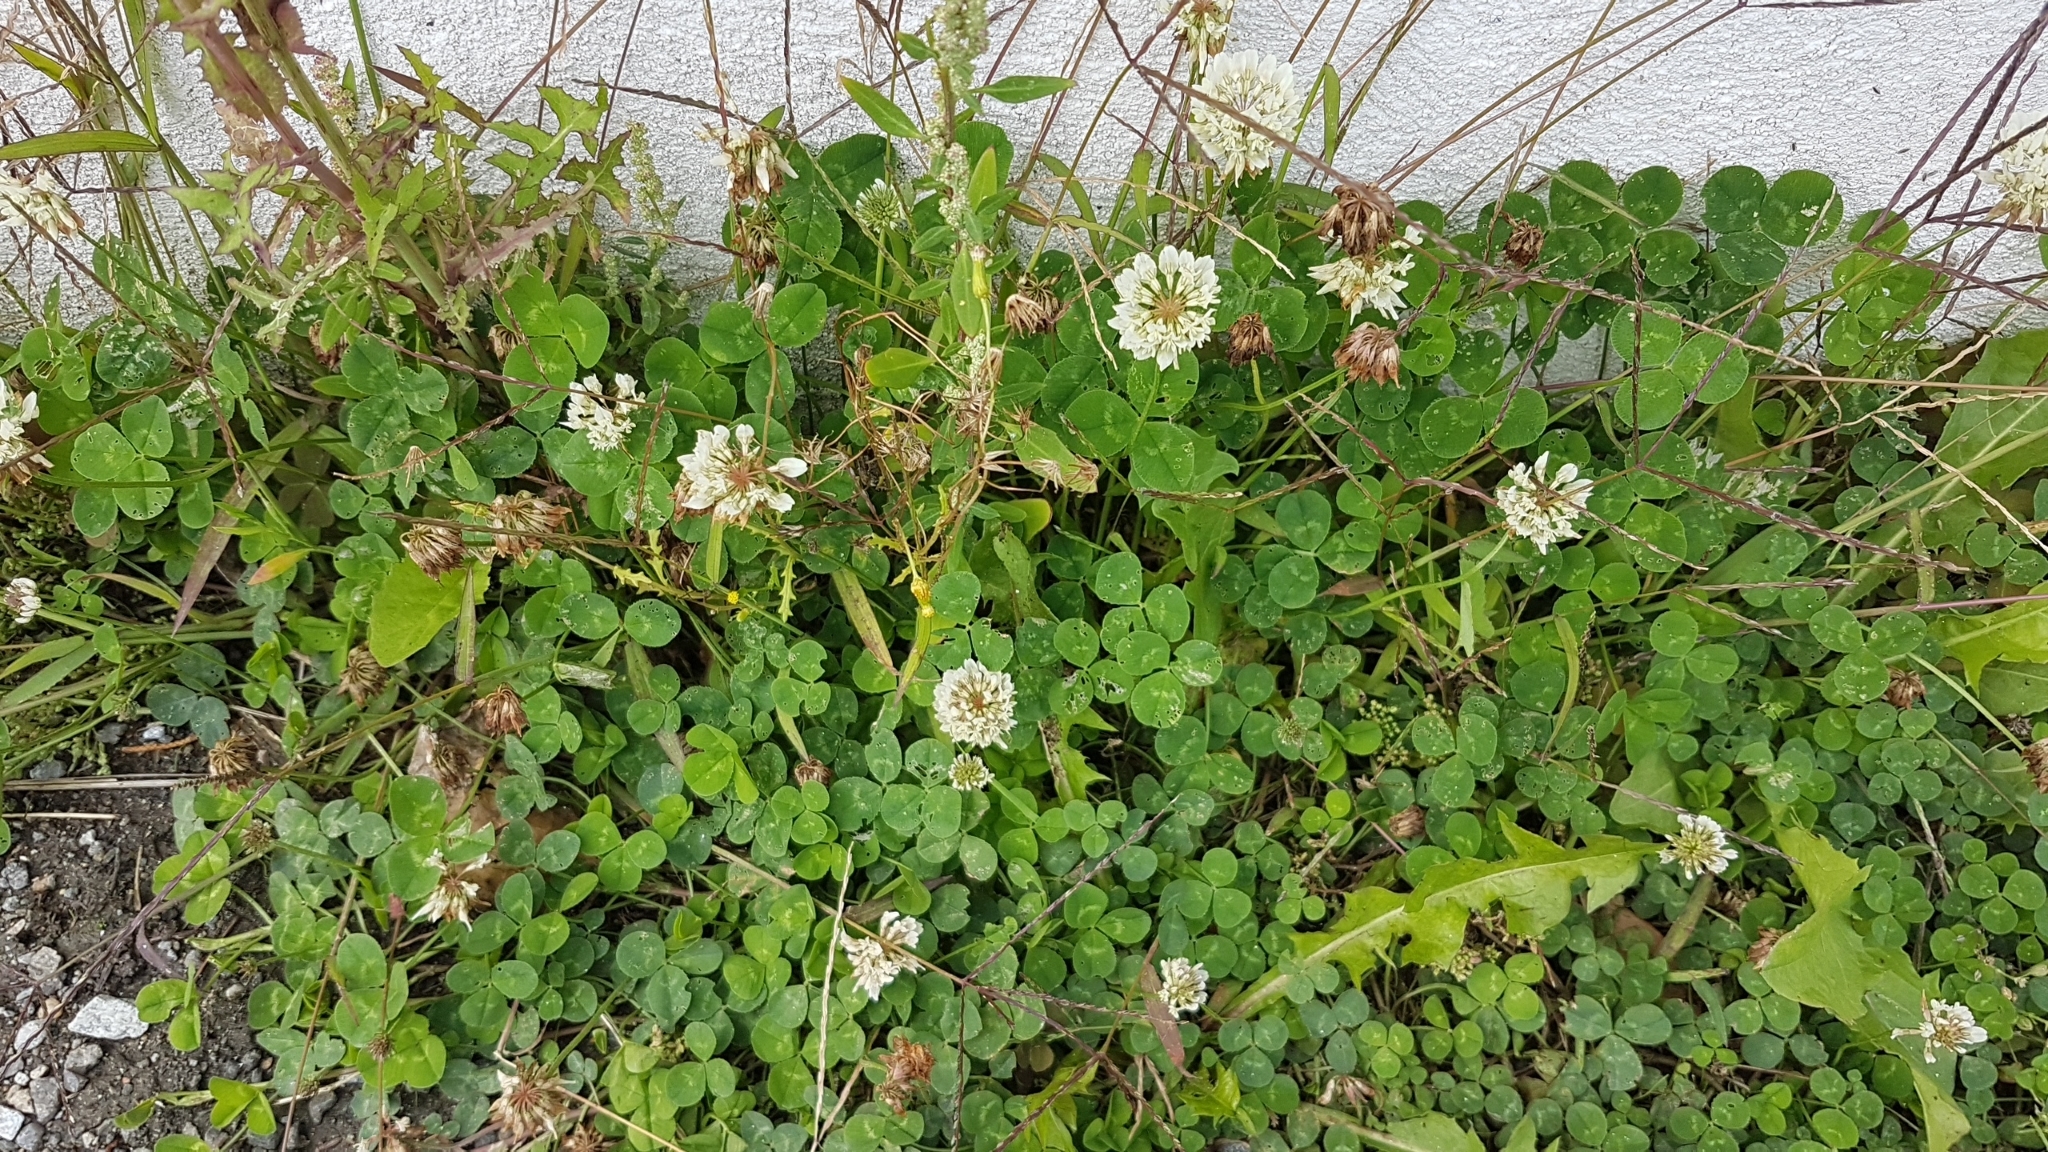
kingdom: Plantae
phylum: Tracheophyta
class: Magnoliopsida
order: Fabales
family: Fabaceae
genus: Trifolium
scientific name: Trifolium repens
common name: White clover
